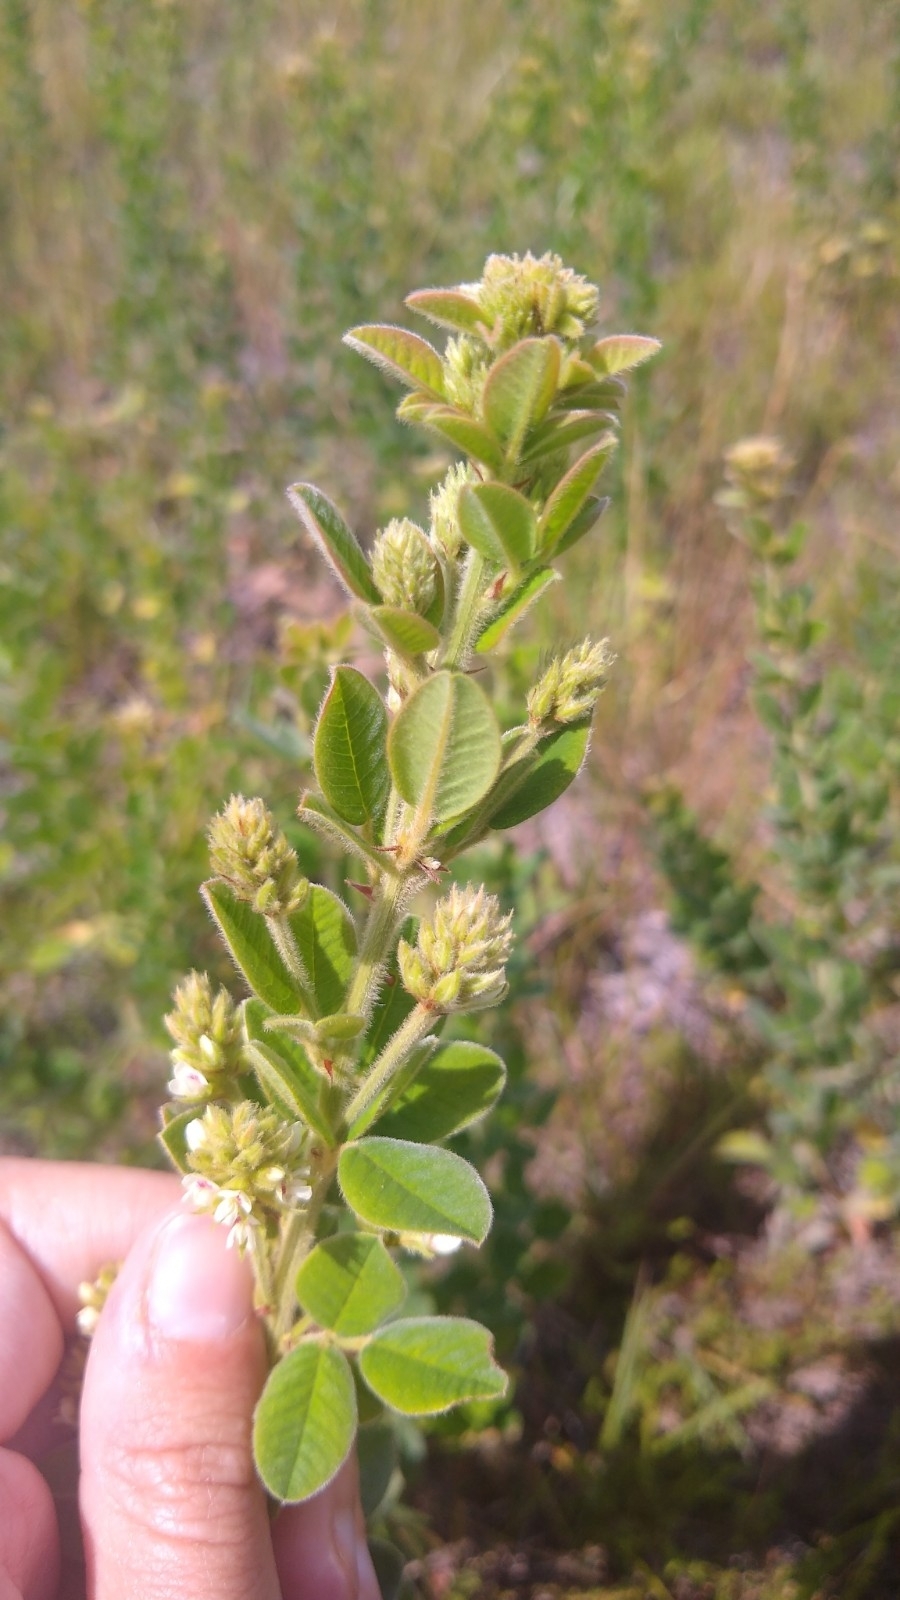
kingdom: Plantae
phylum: Tracheophyta
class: Magnoliopsida
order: Fabales
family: Fabaceae
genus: Lespedeza
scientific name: Lespedeza hirta
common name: Hairy lespedeza
